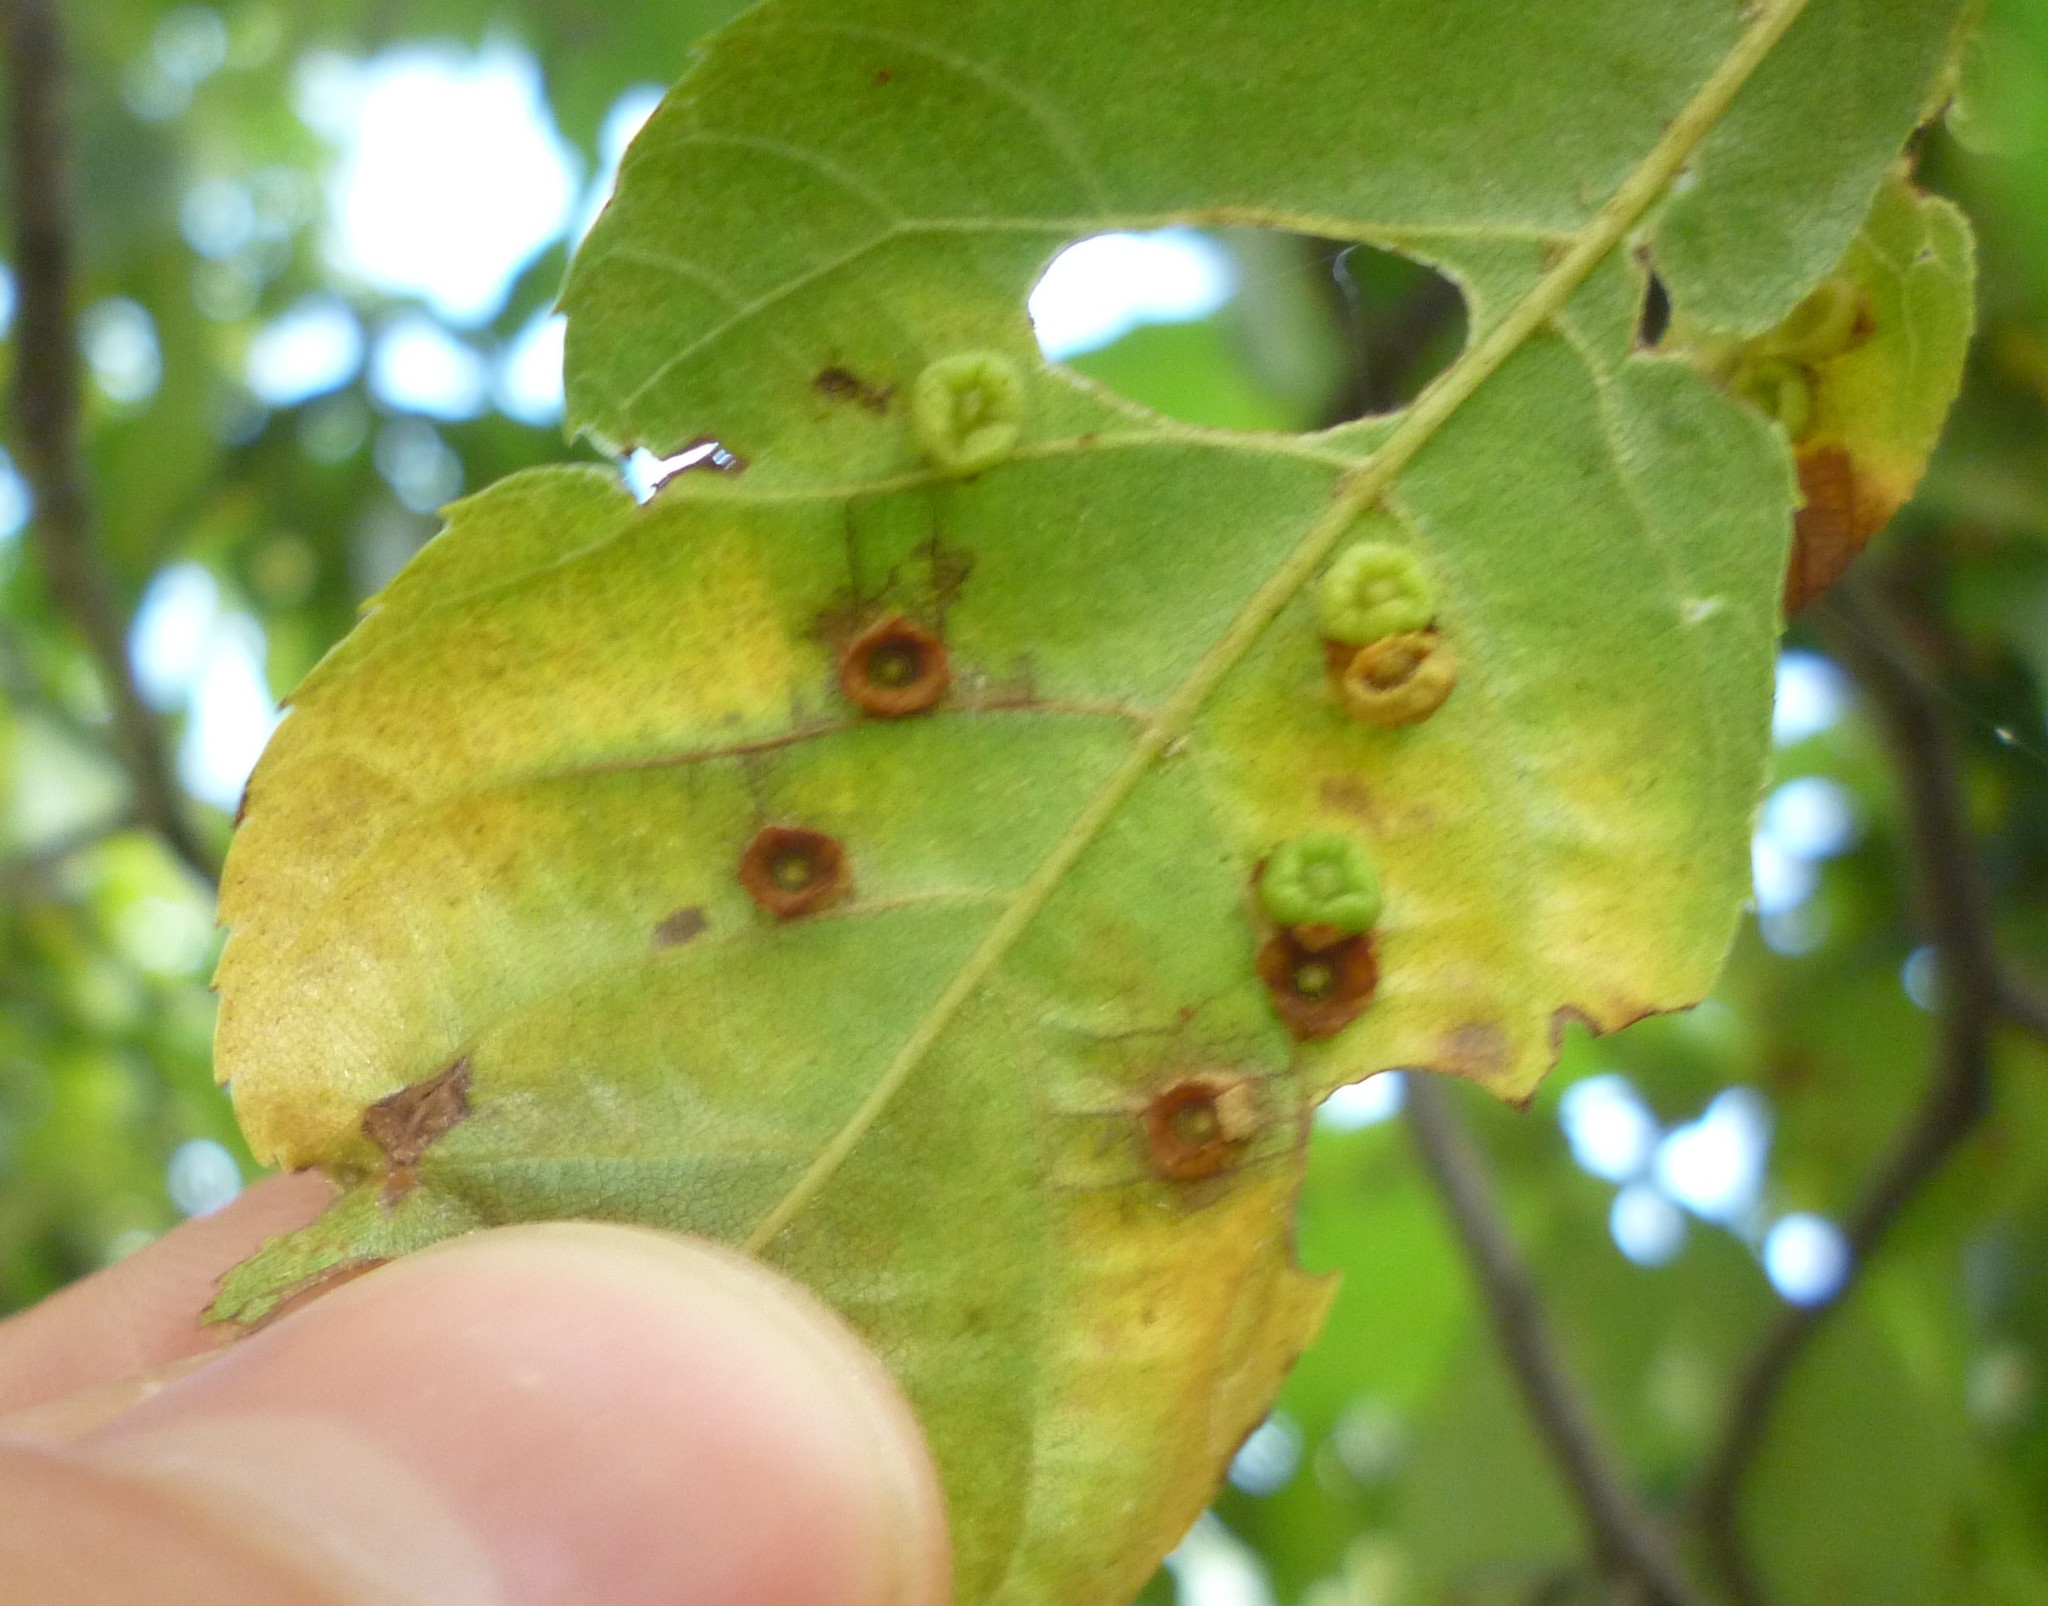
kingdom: Animalia
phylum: Arthropoda
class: Insecta
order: Diptera
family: Cecidomyiidae
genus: Caryomyia
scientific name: Caryomyia biretta
